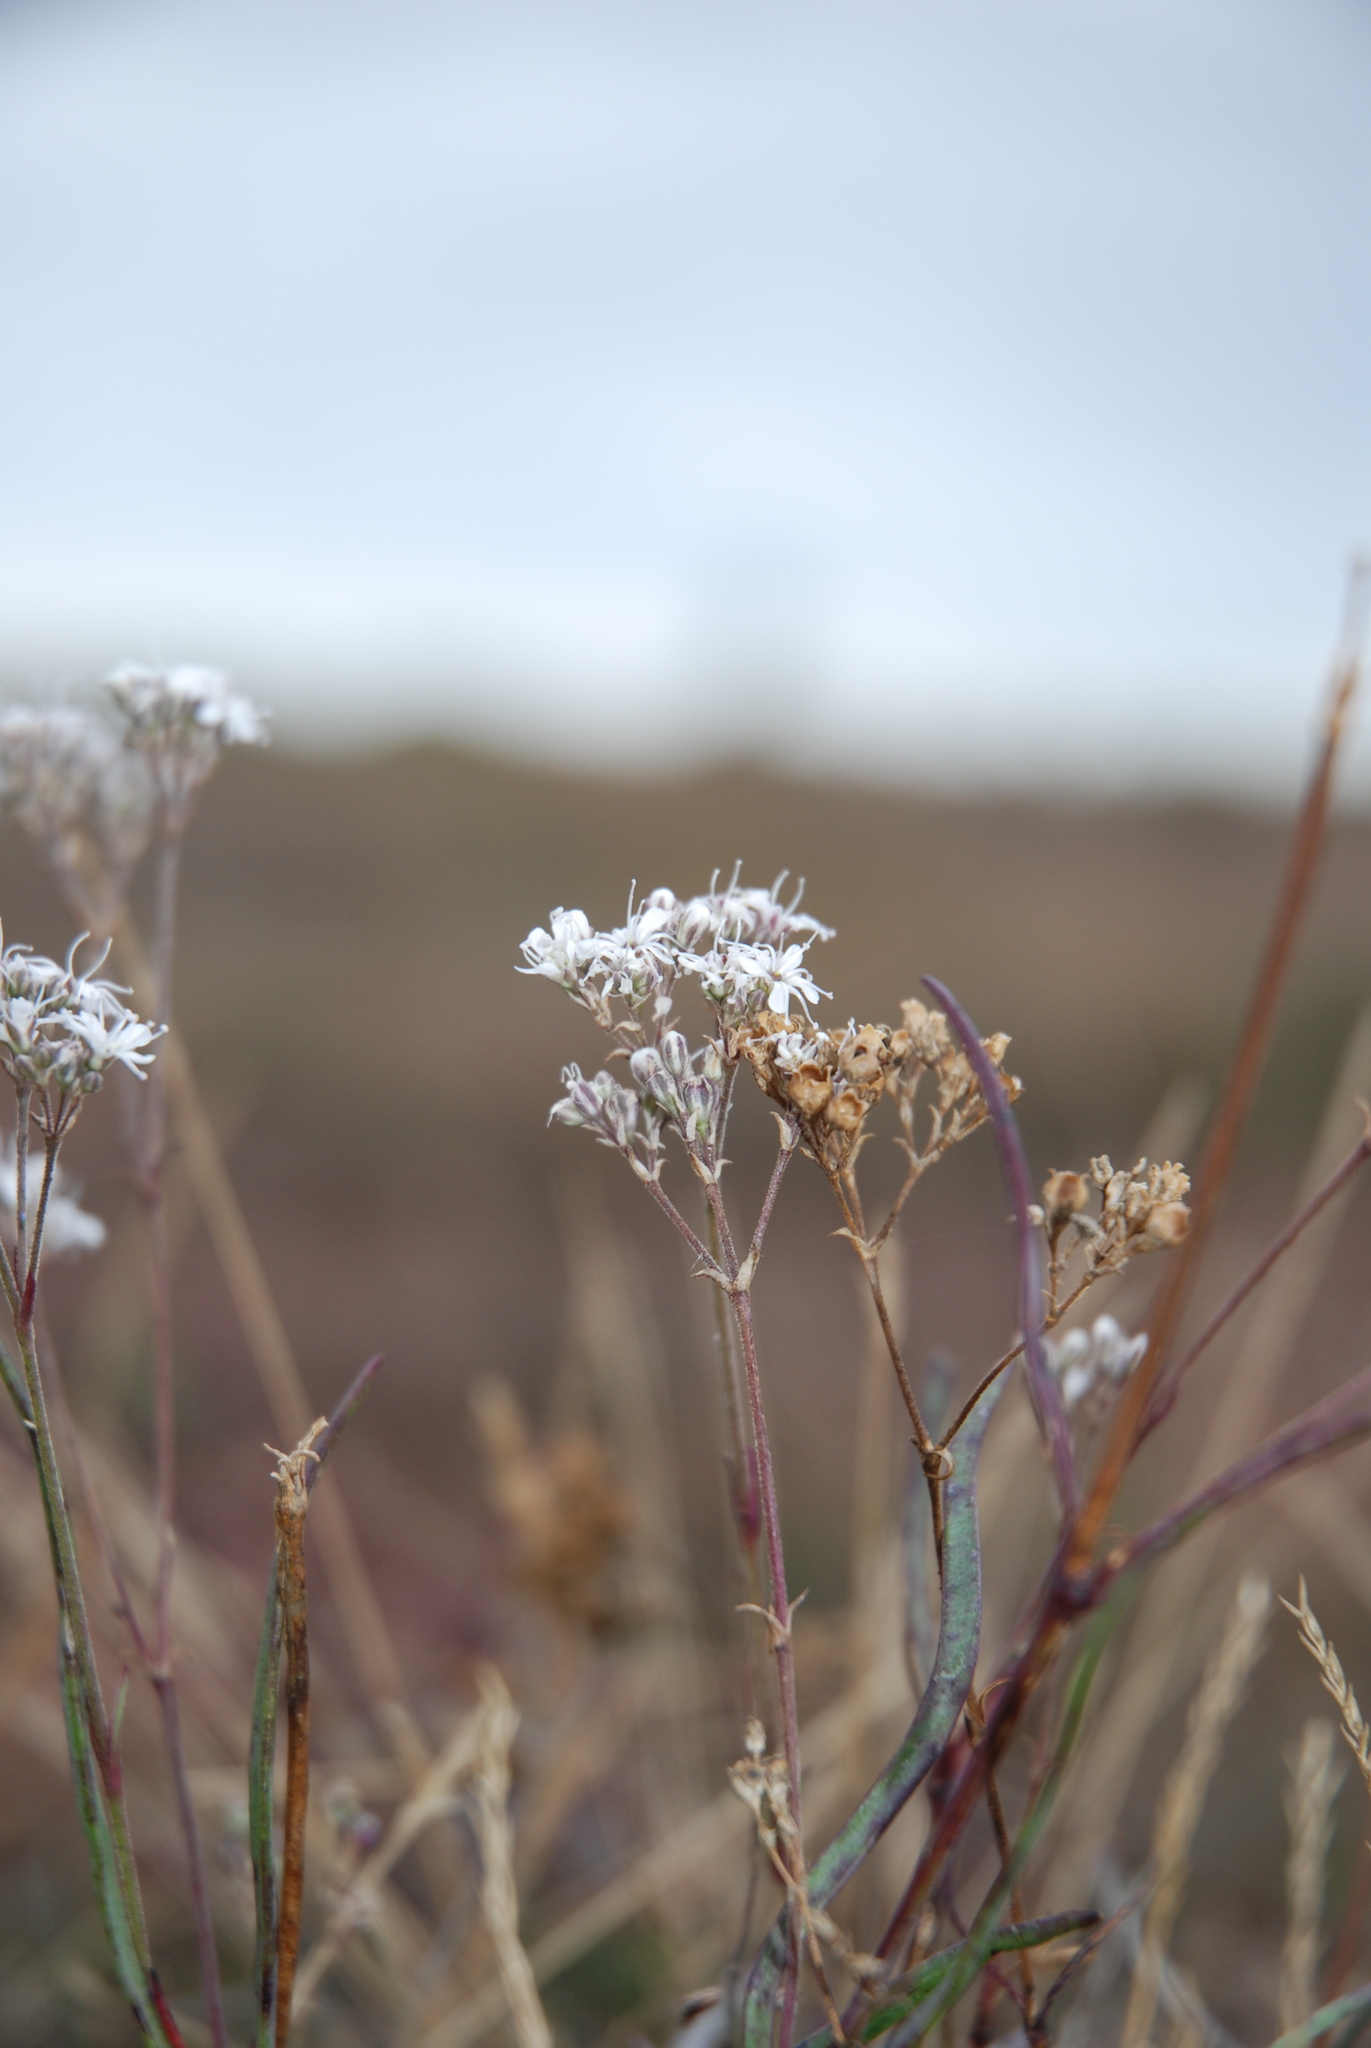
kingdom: Plantae
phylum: Tracheophyta
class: Magnoliopsida
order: Caryophyllales
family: Caryophyllaceae
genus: Gypsophila
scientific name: Gypsophila fastigiata
